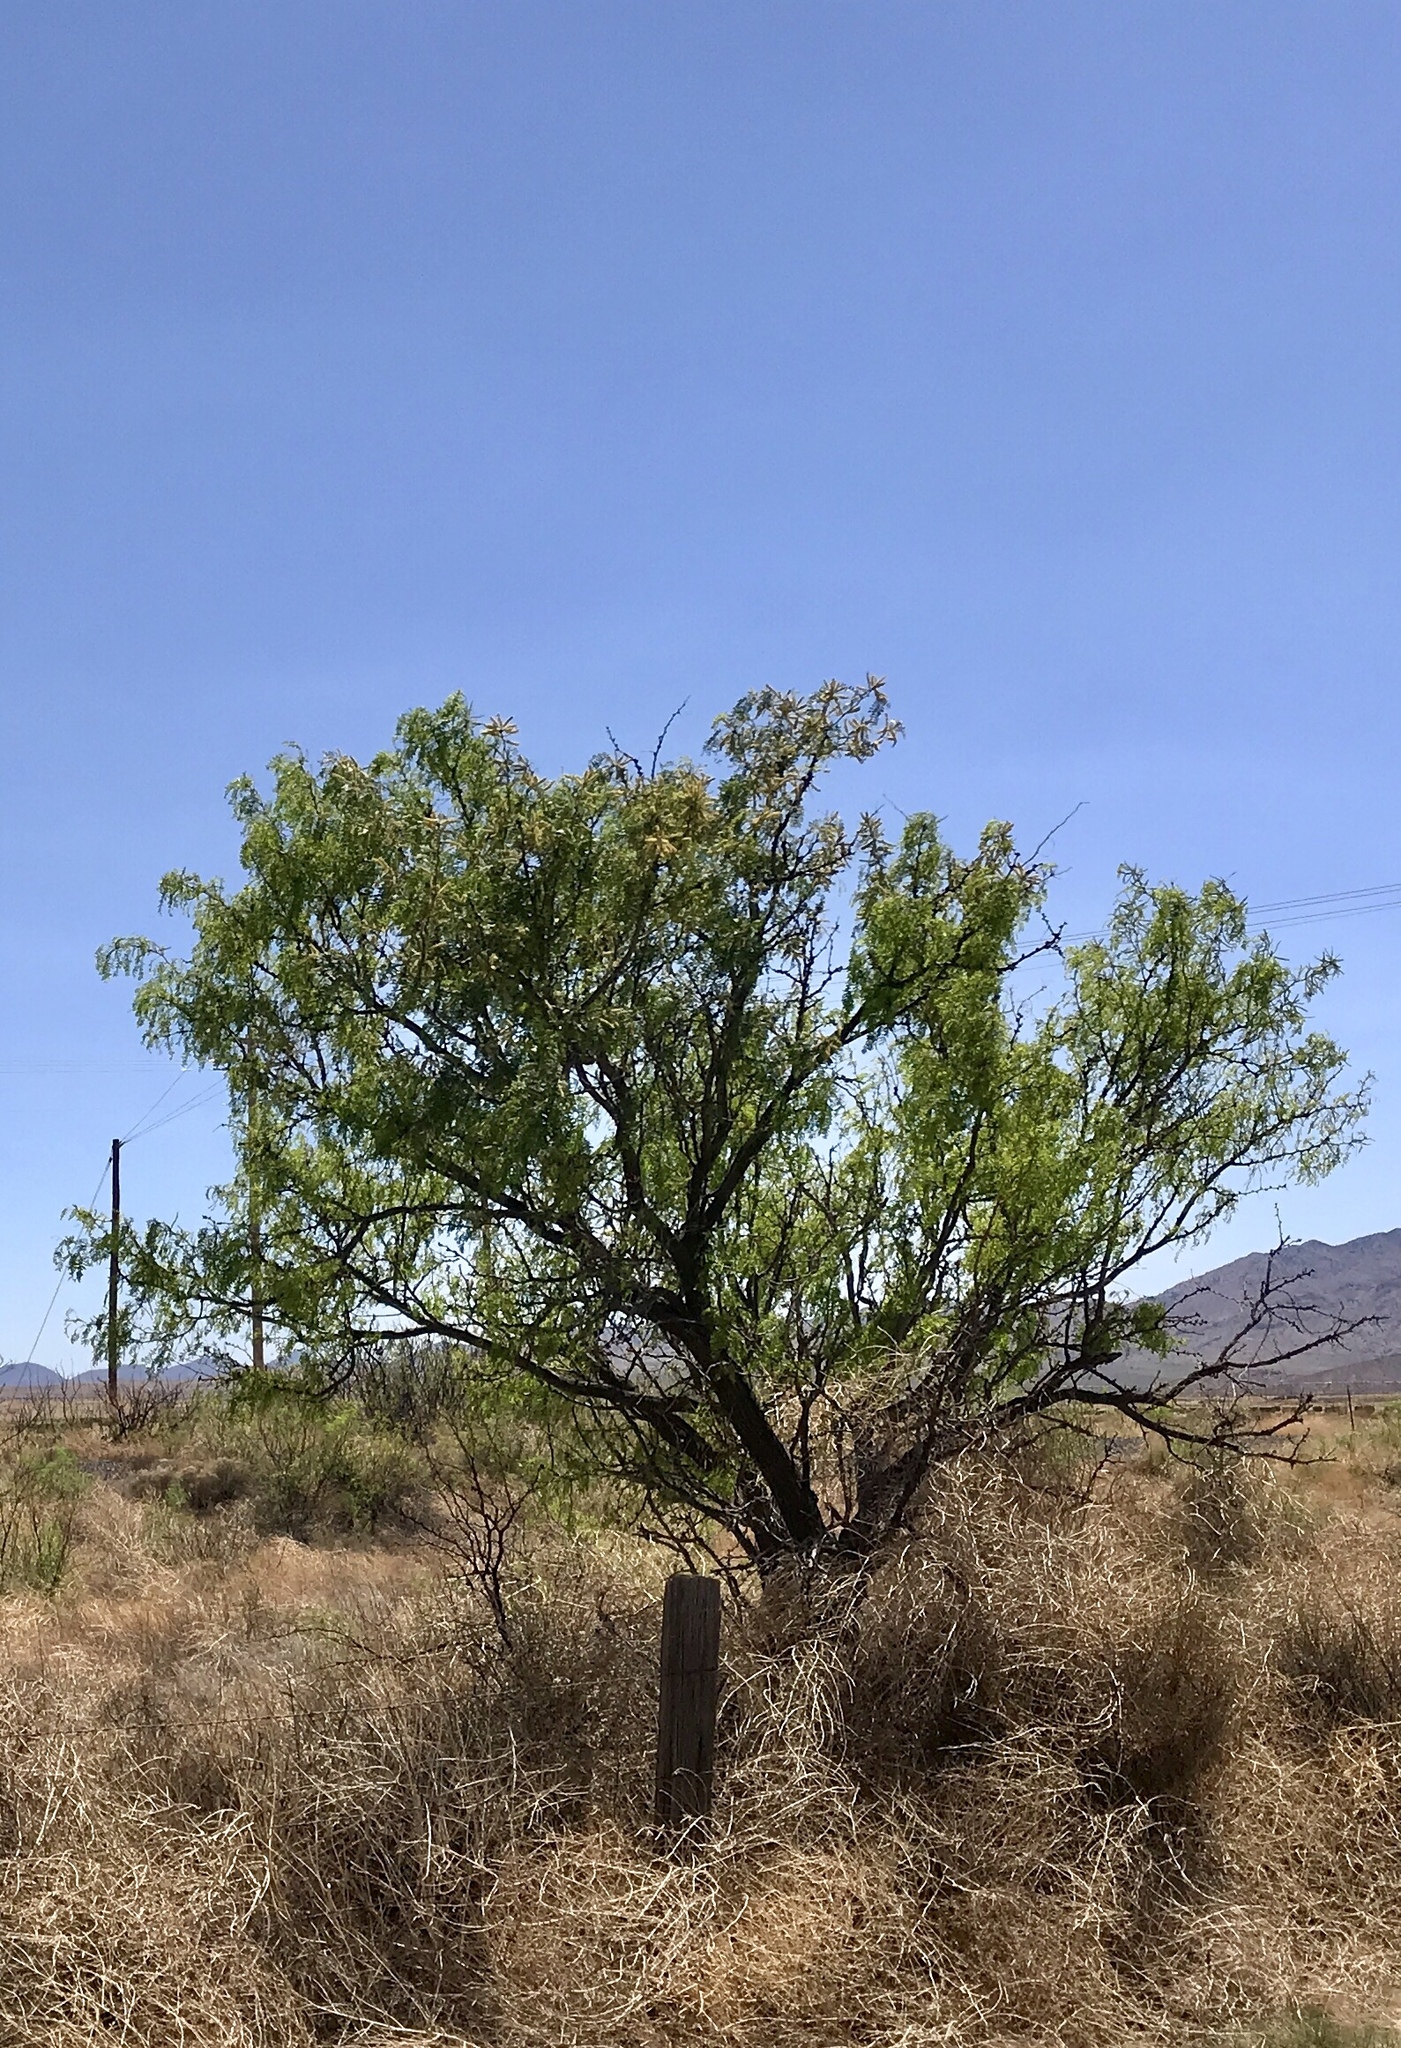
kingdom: Plantae
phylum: Tracheophyta
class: Magnoliopsida
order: Fabales
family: Fabaceae
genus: Prosopis
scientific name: Prosopis glandulosa
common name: Honey mesquite
